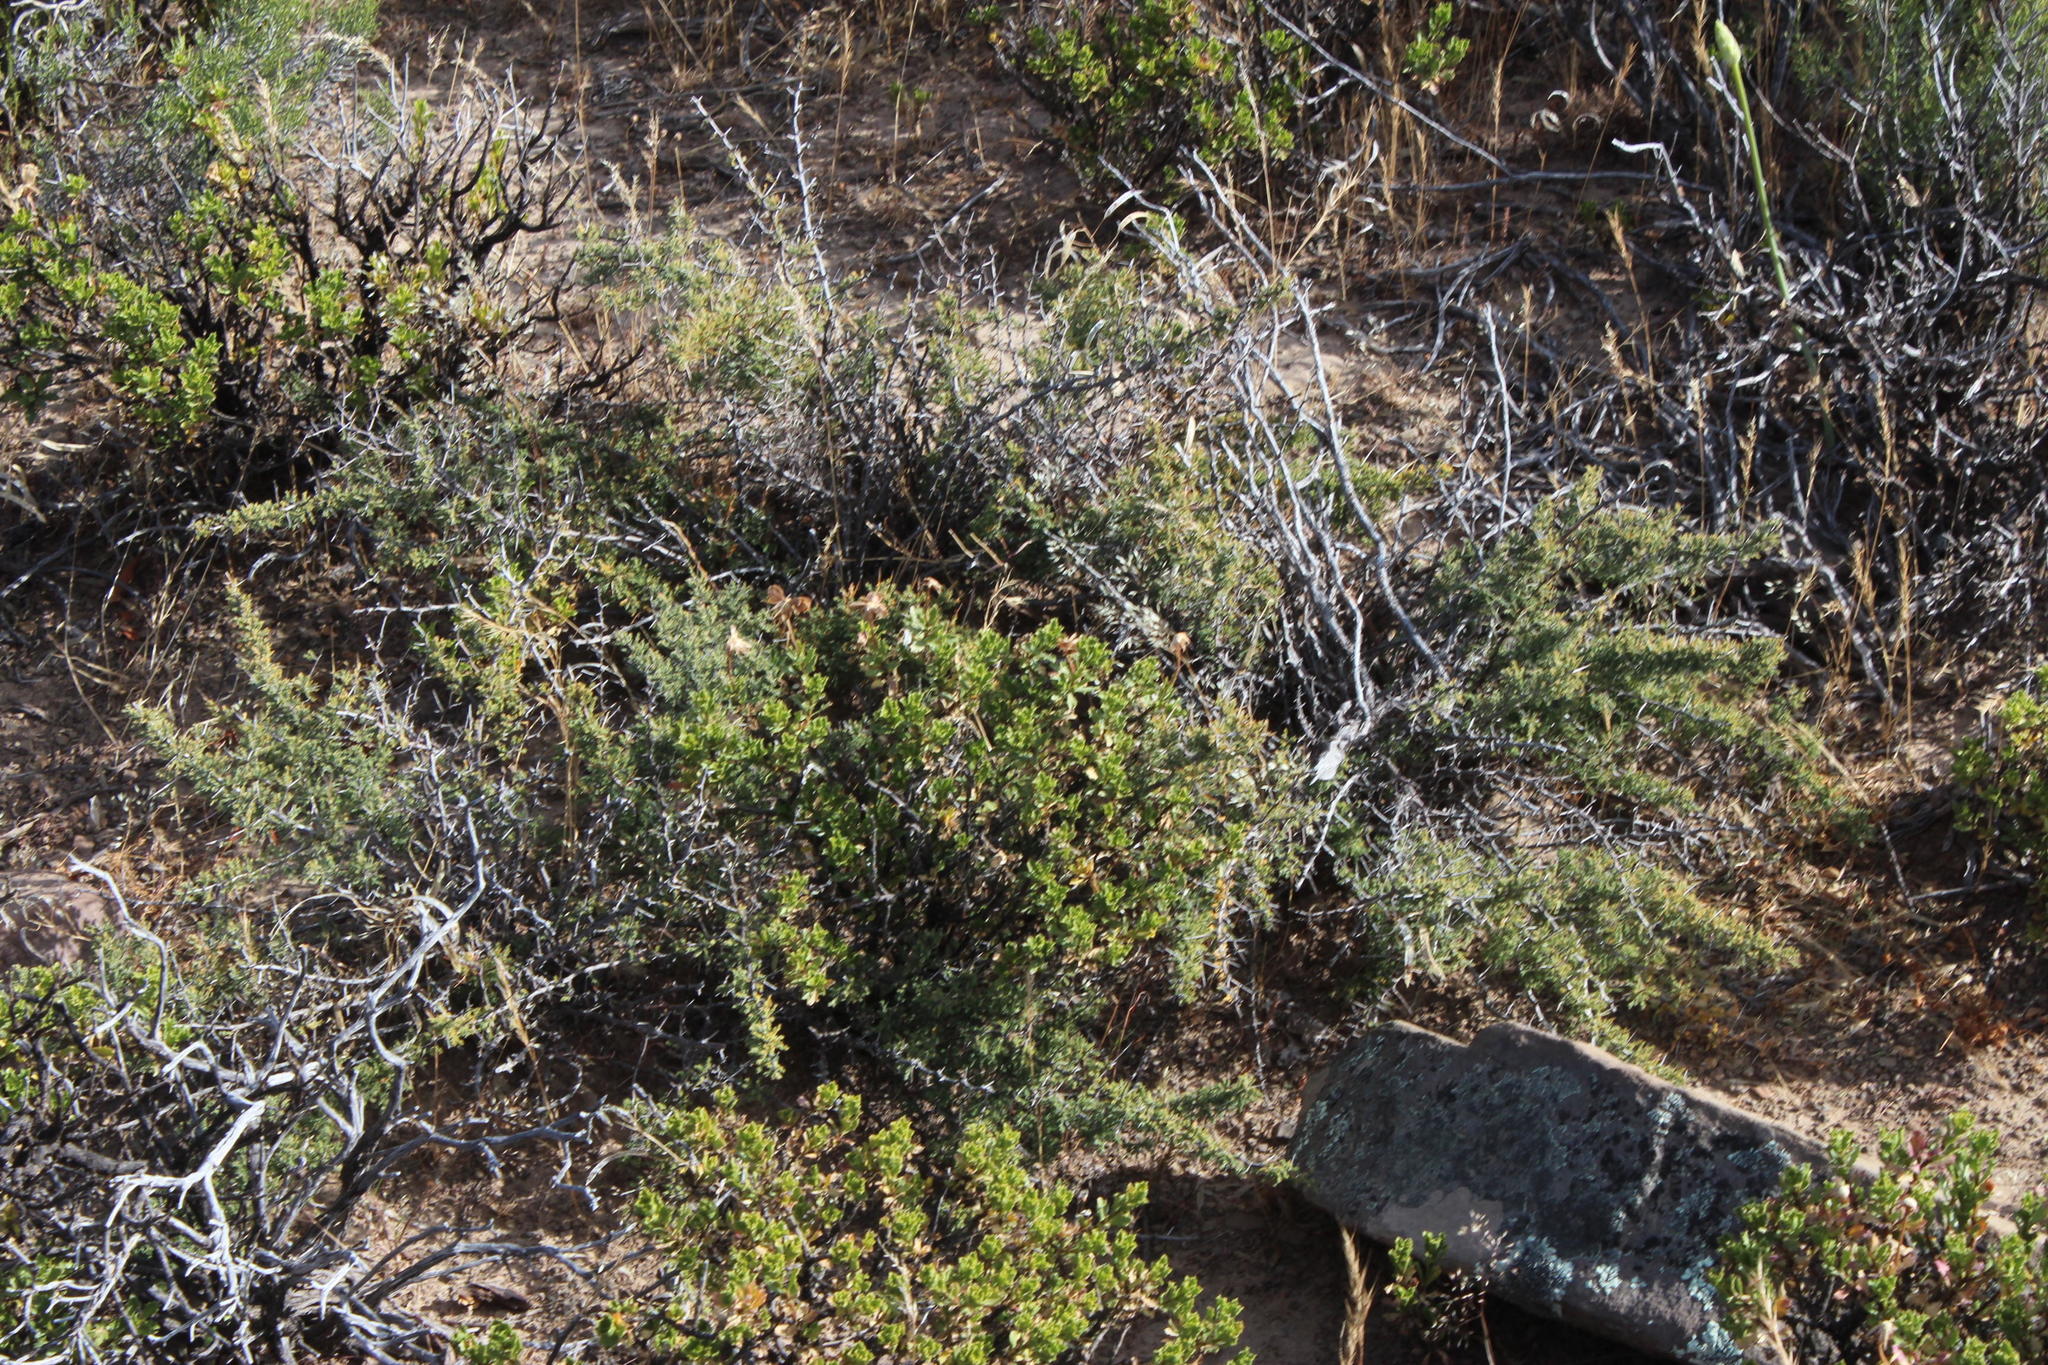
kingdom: Plantae
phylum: Tracheophyta
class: Liliopsida
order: Asparagales
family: Asparagaceae
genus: Asparagus
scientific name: Asparagus capensis
